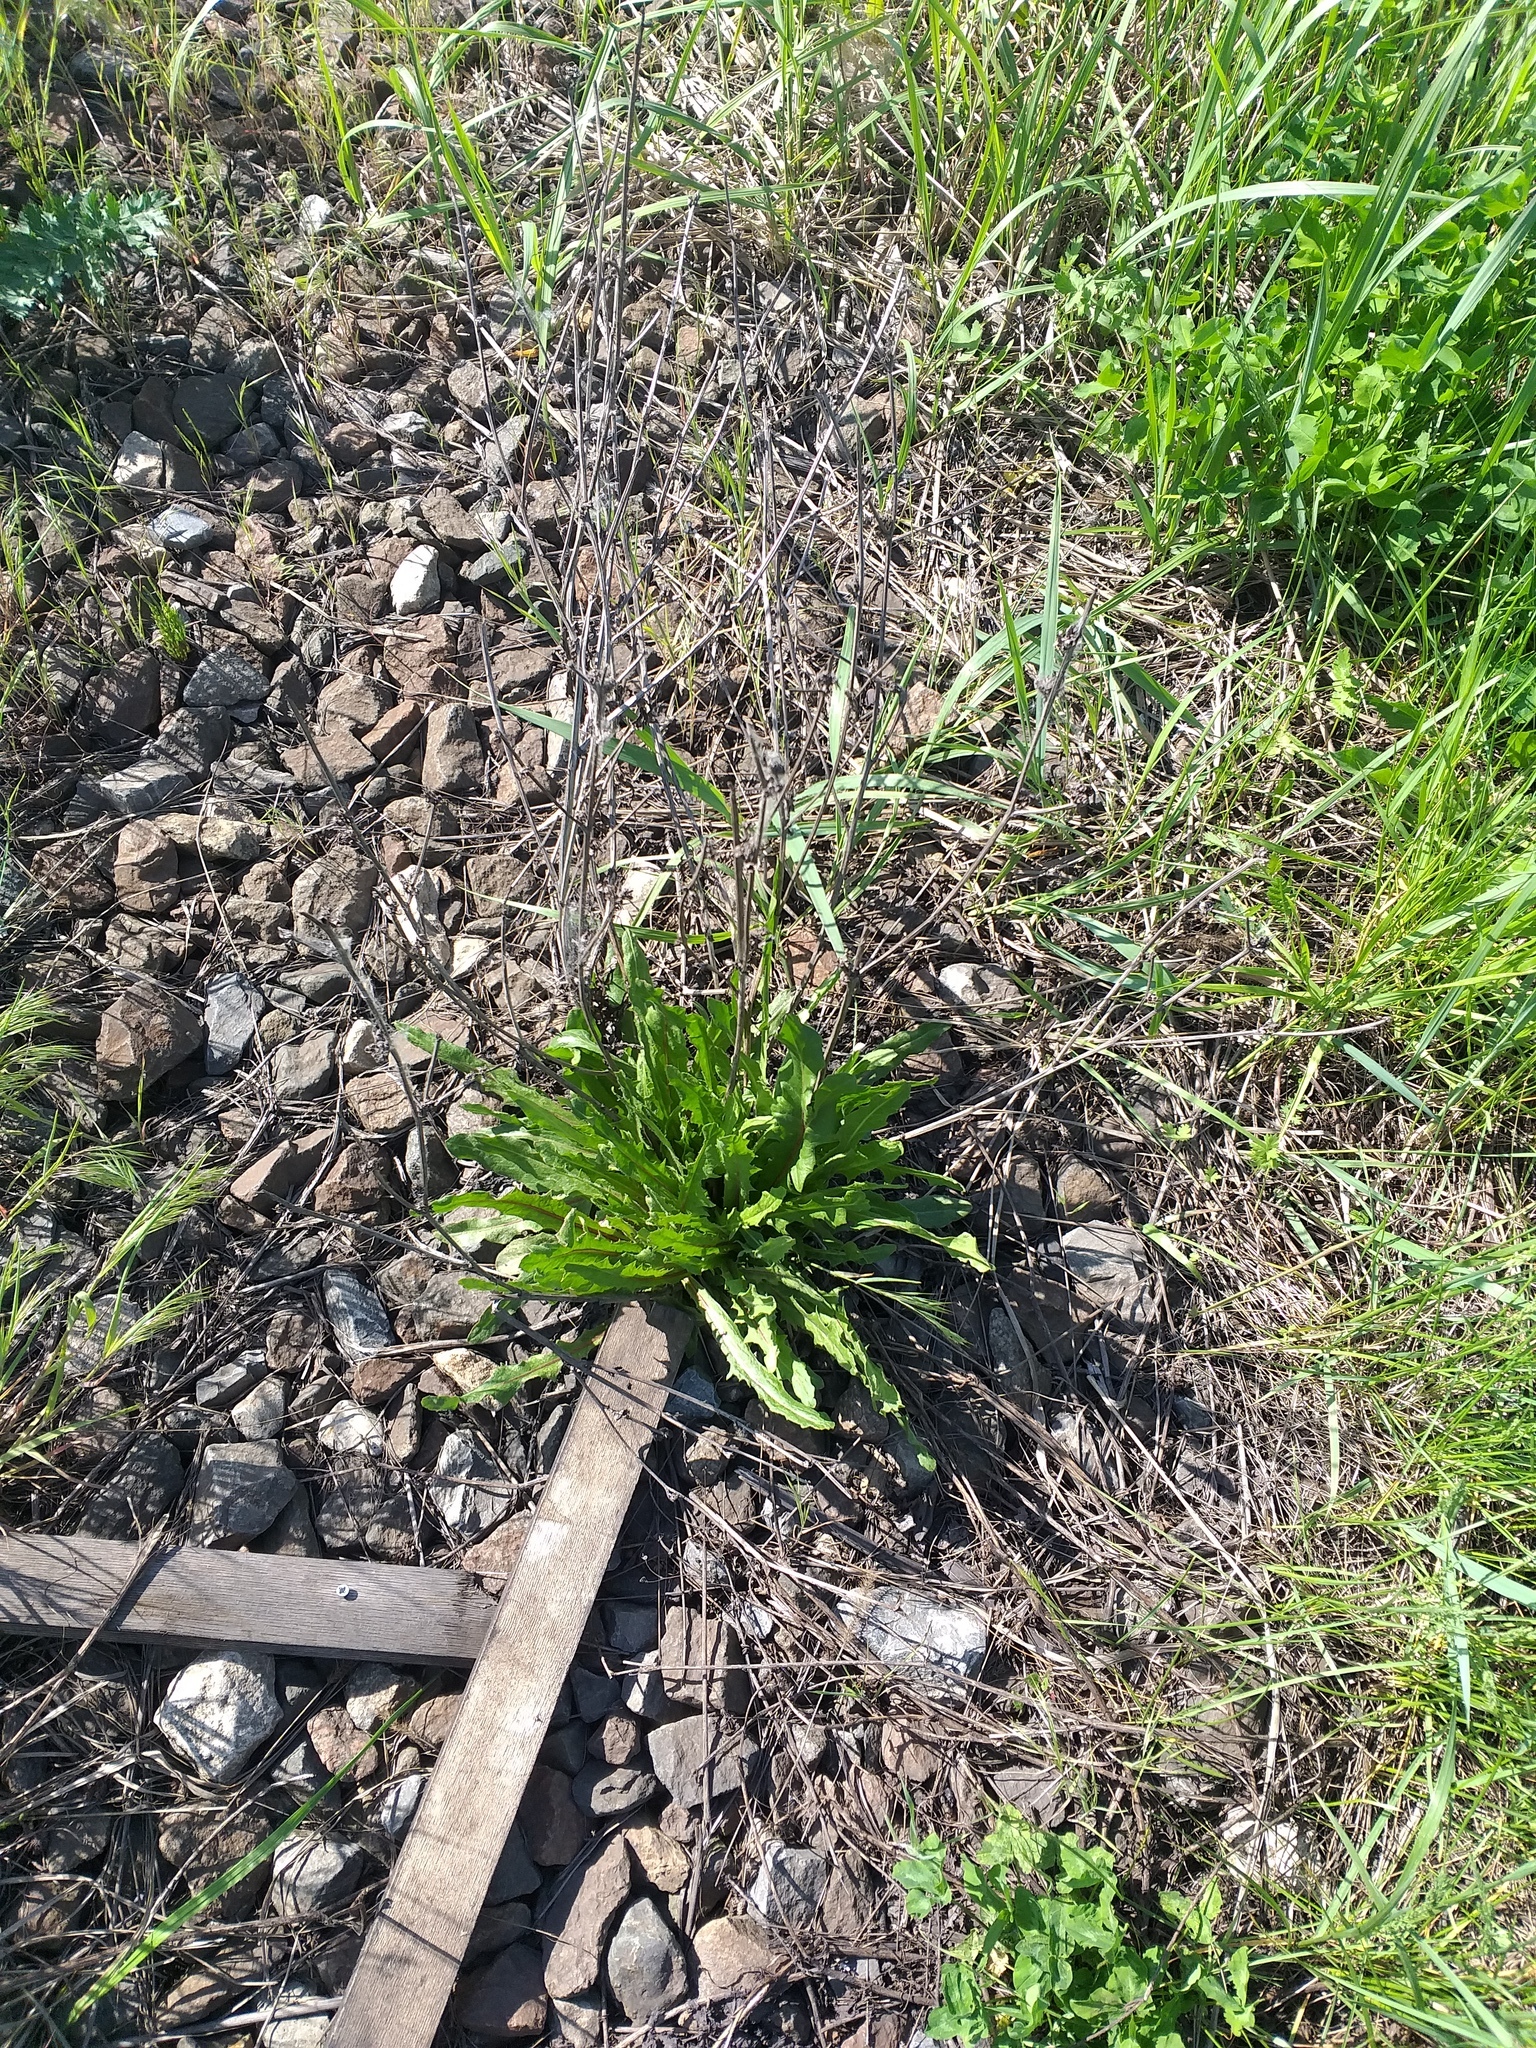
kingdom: Plantae
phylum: Tracheophyta
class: Magnoliopsida
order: Asterales
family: Asteraceae
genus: Cichorium
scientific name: Cichorium intybus
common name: Chicory
